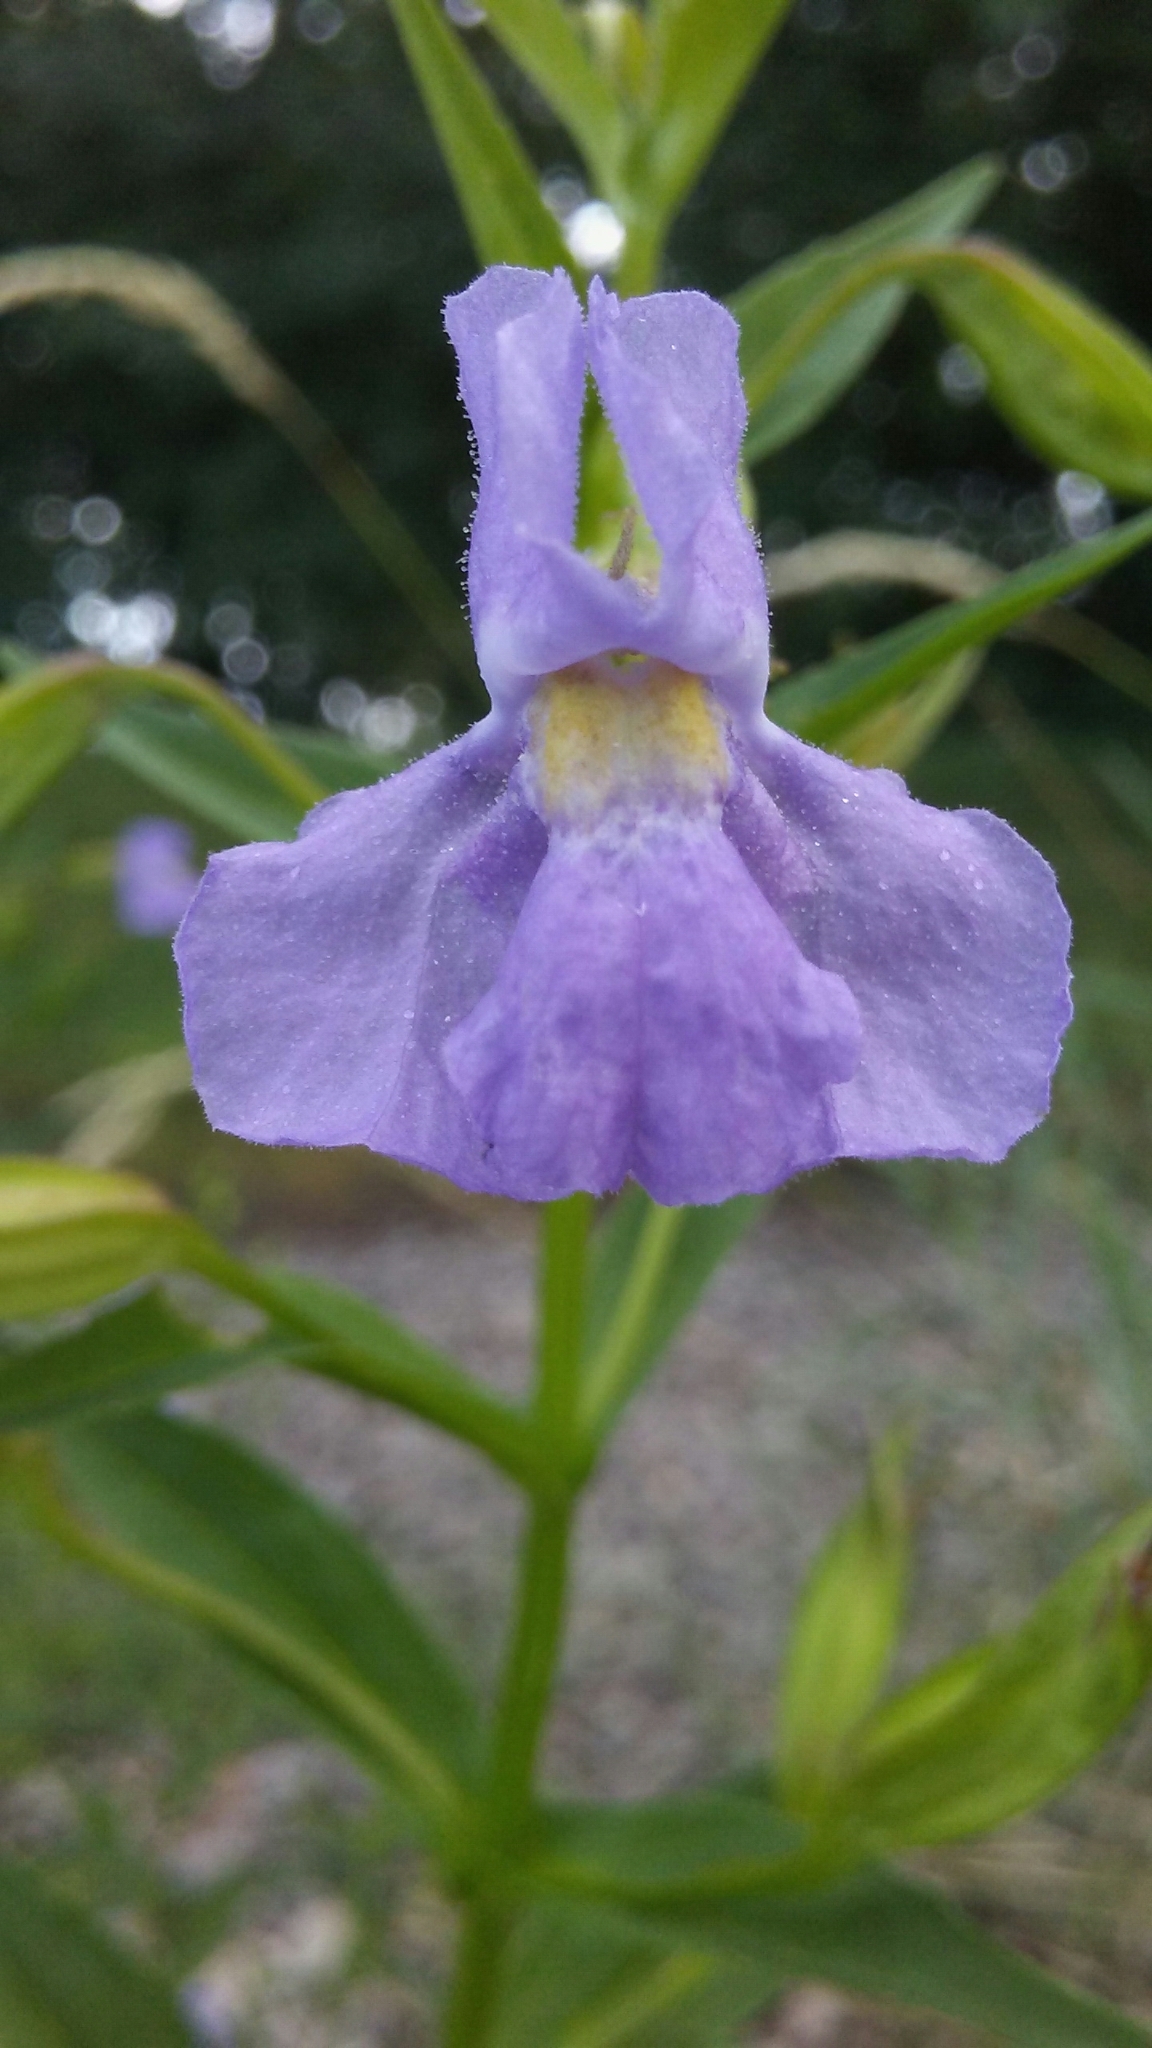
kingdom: Plantae
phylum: Tracheophyta
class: Magnoliopsida
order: Lamiales
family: Phrymaceae
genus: Mimulus
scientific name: Mimulus ringens
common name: Allegheny monkeyflower
